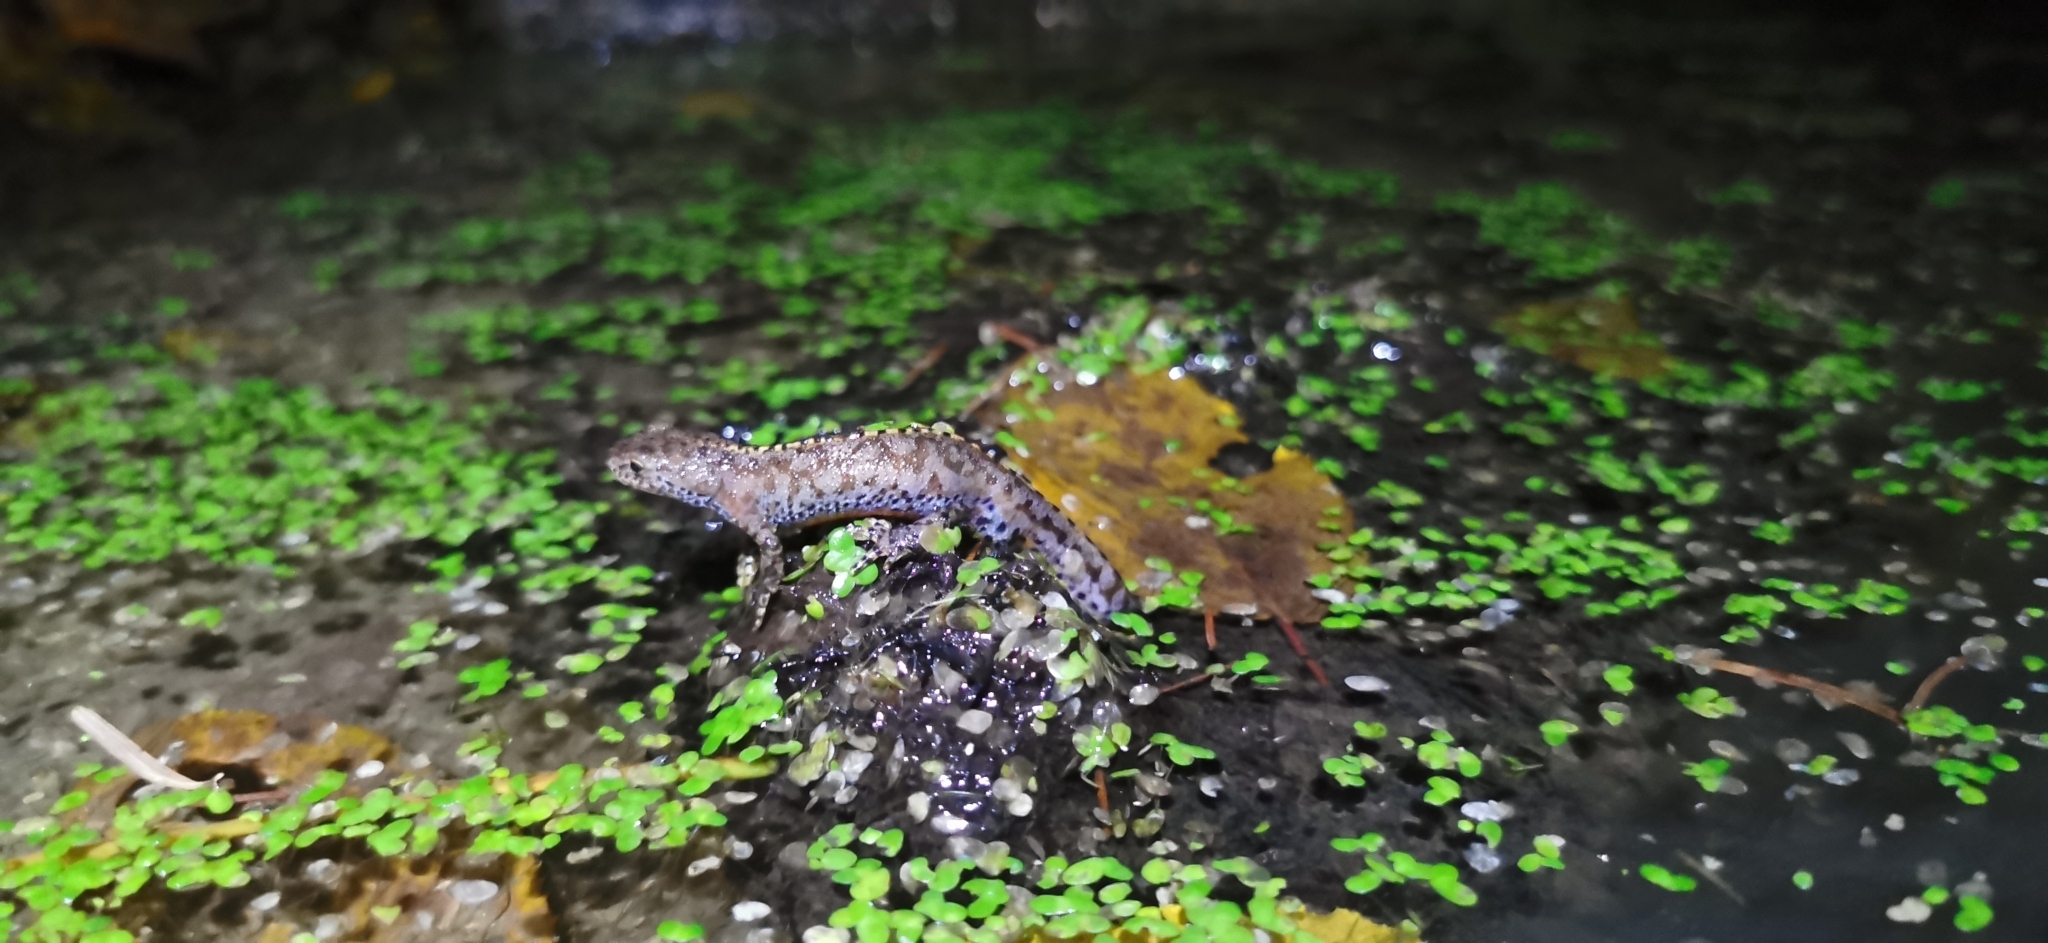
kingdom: Animalia
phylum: Chordata
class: Amphibia
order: Caudata
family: Salamandridae
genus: Ichthyosaura
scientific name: Ichthyosaura alpestris
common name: Alpine newt
